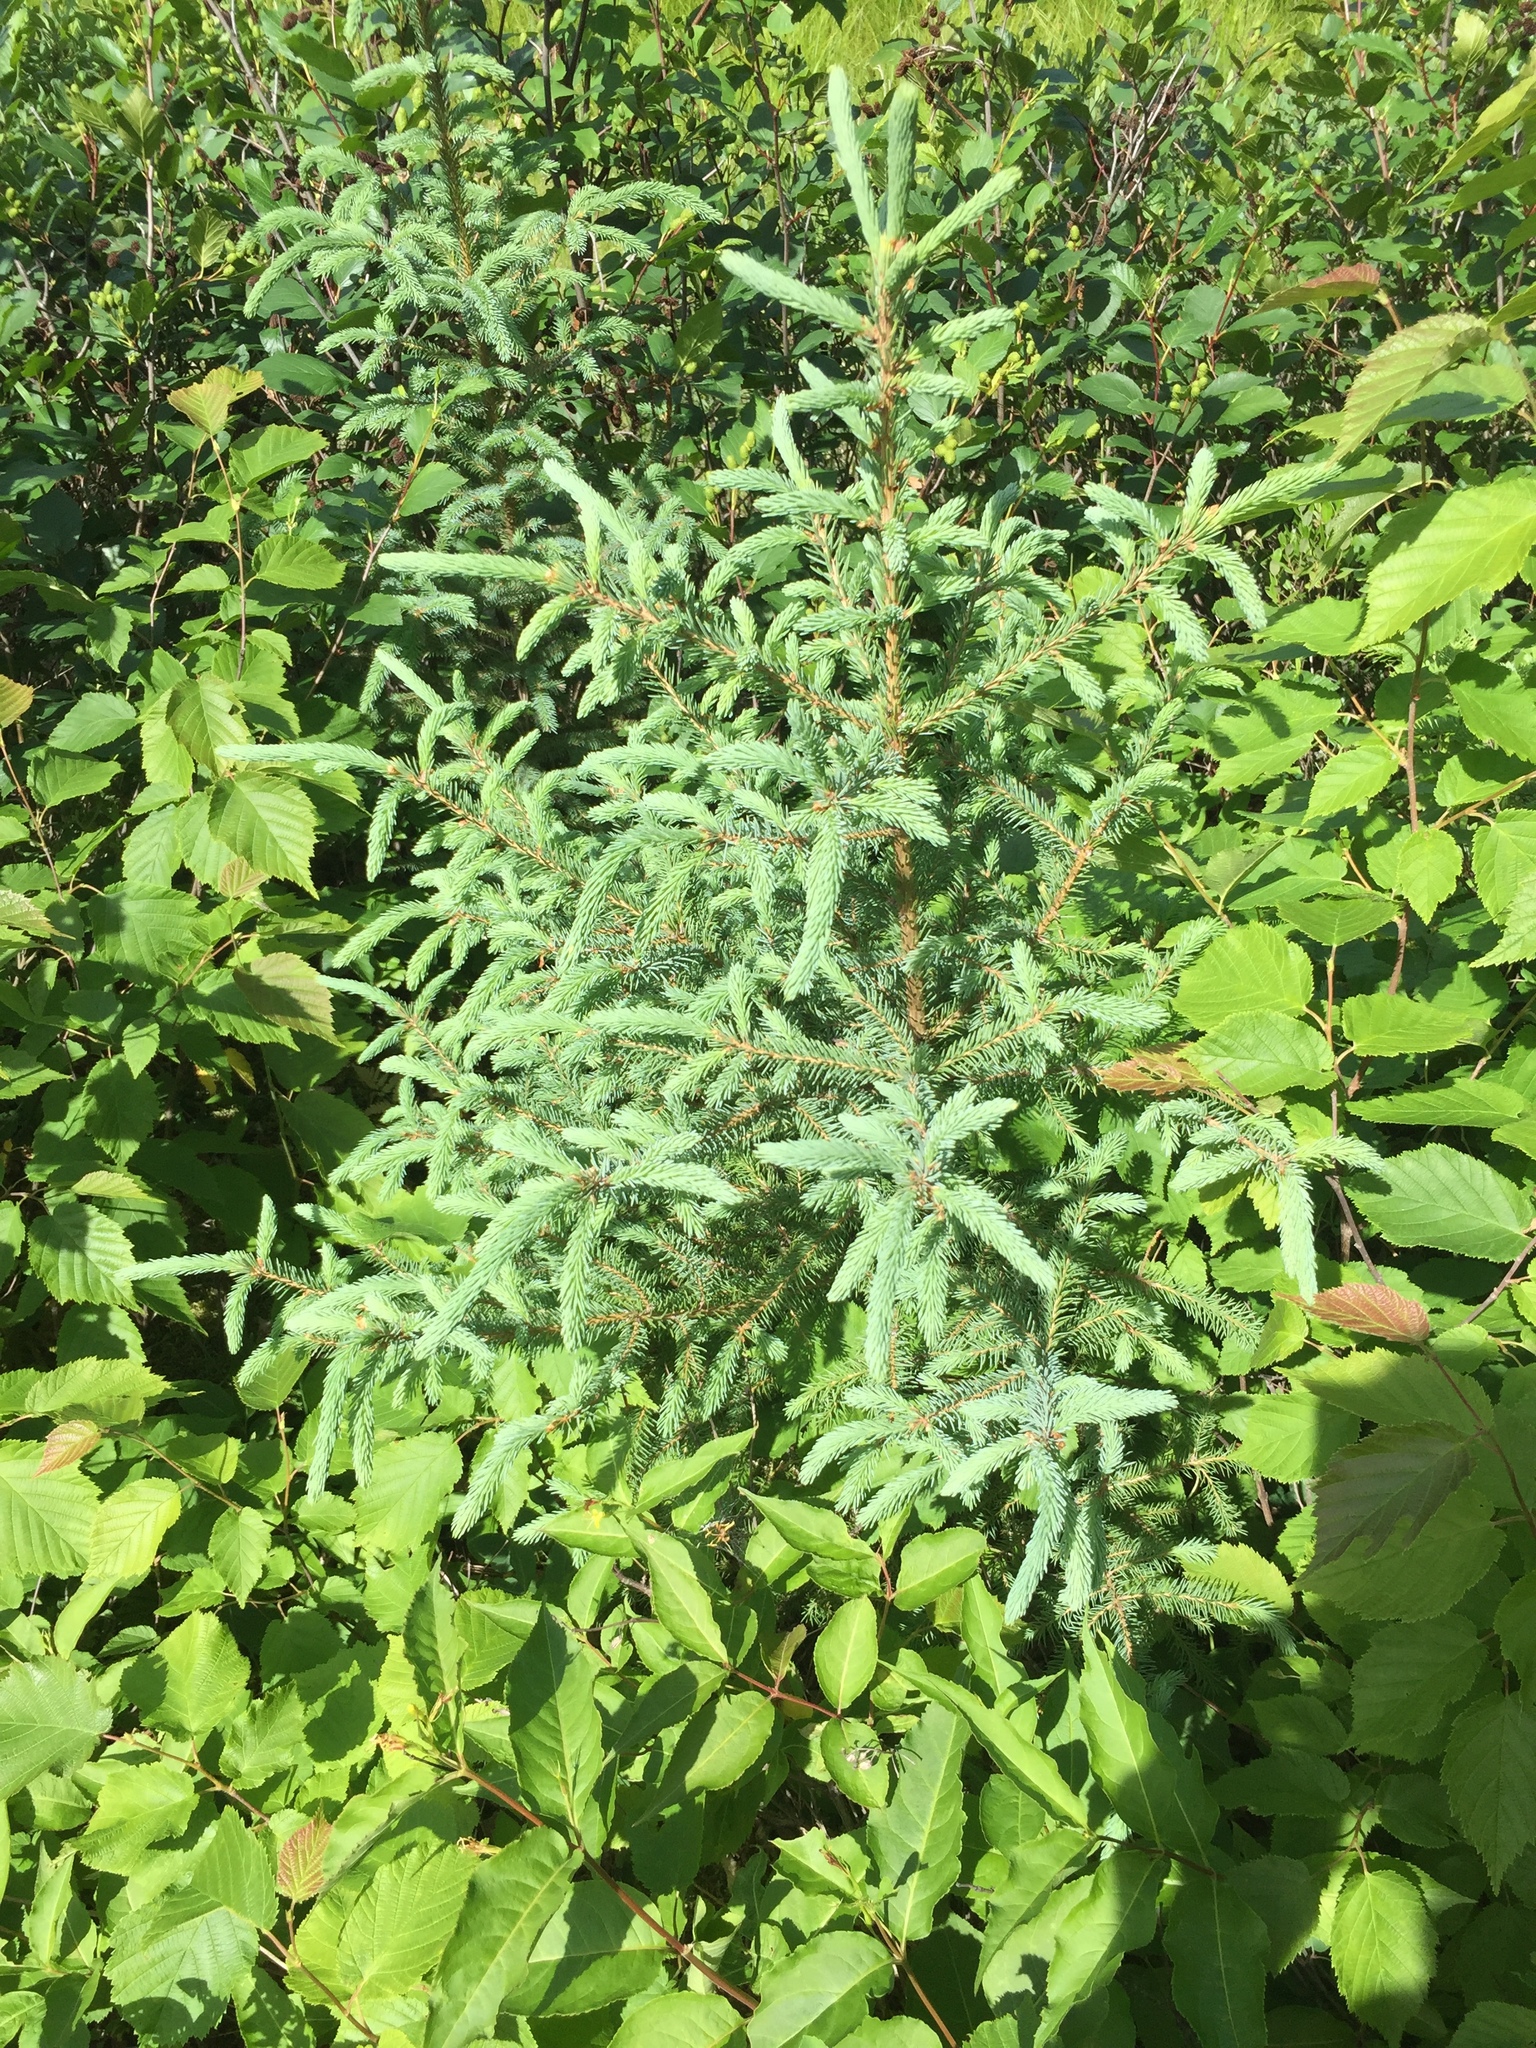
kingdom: Plantae
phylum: Tracheophyta
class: Pinopsida
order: Pinales
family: Pinaceae
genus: Picea
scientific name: Picea glauca
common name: White spruce
